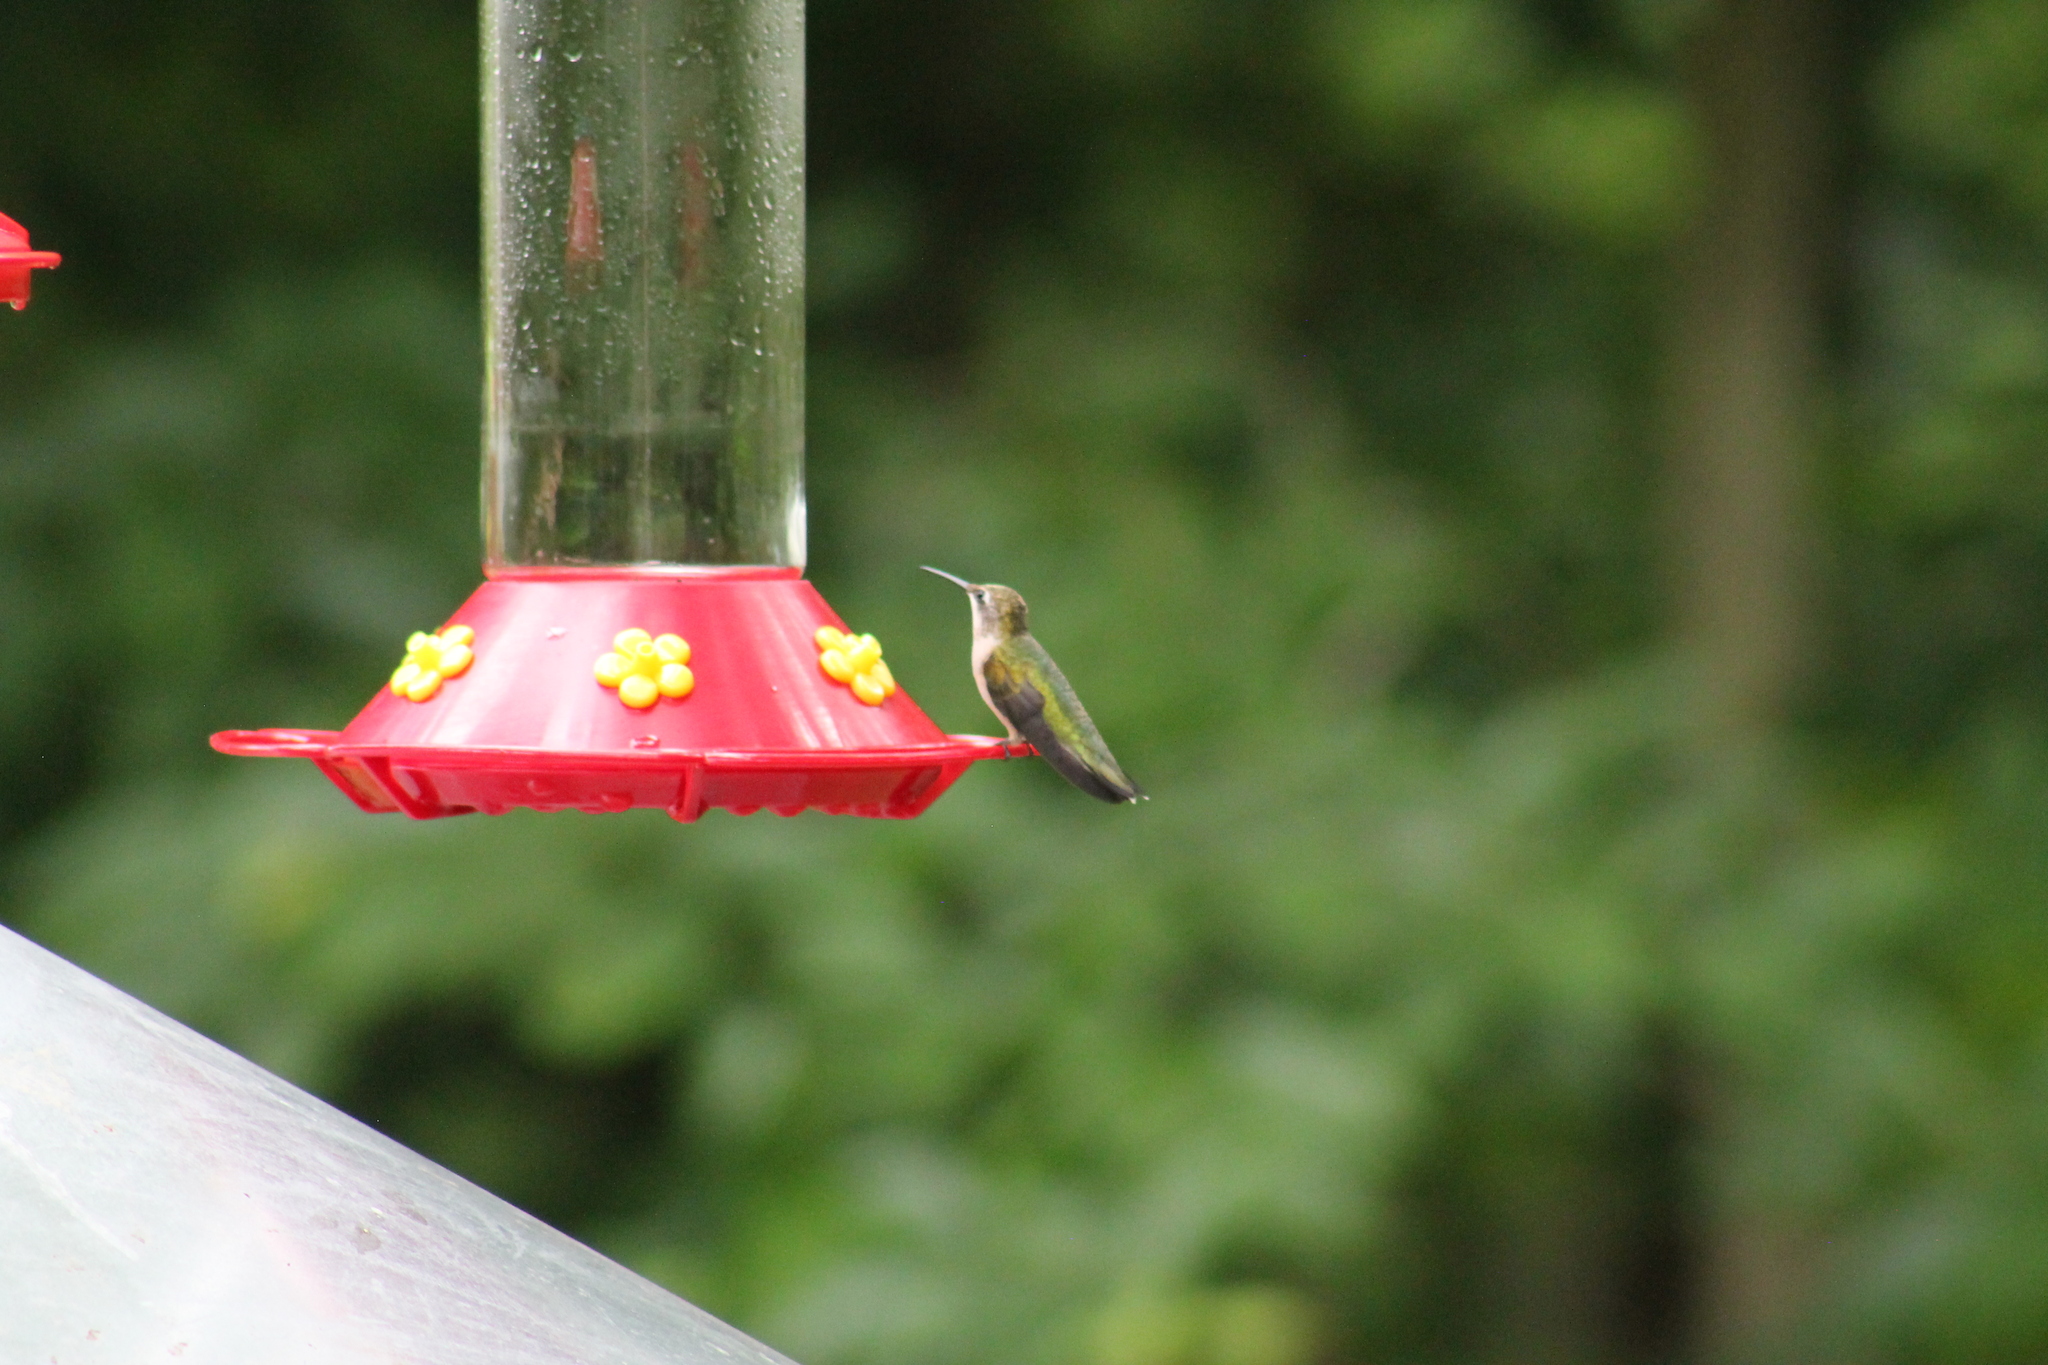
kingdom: Animalia
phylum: Chordata
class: Aves
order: Apodiformes
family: Trochilidae
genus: Archilochus
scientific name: Archilochus colubris
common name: Ruby-throated hummingbird
